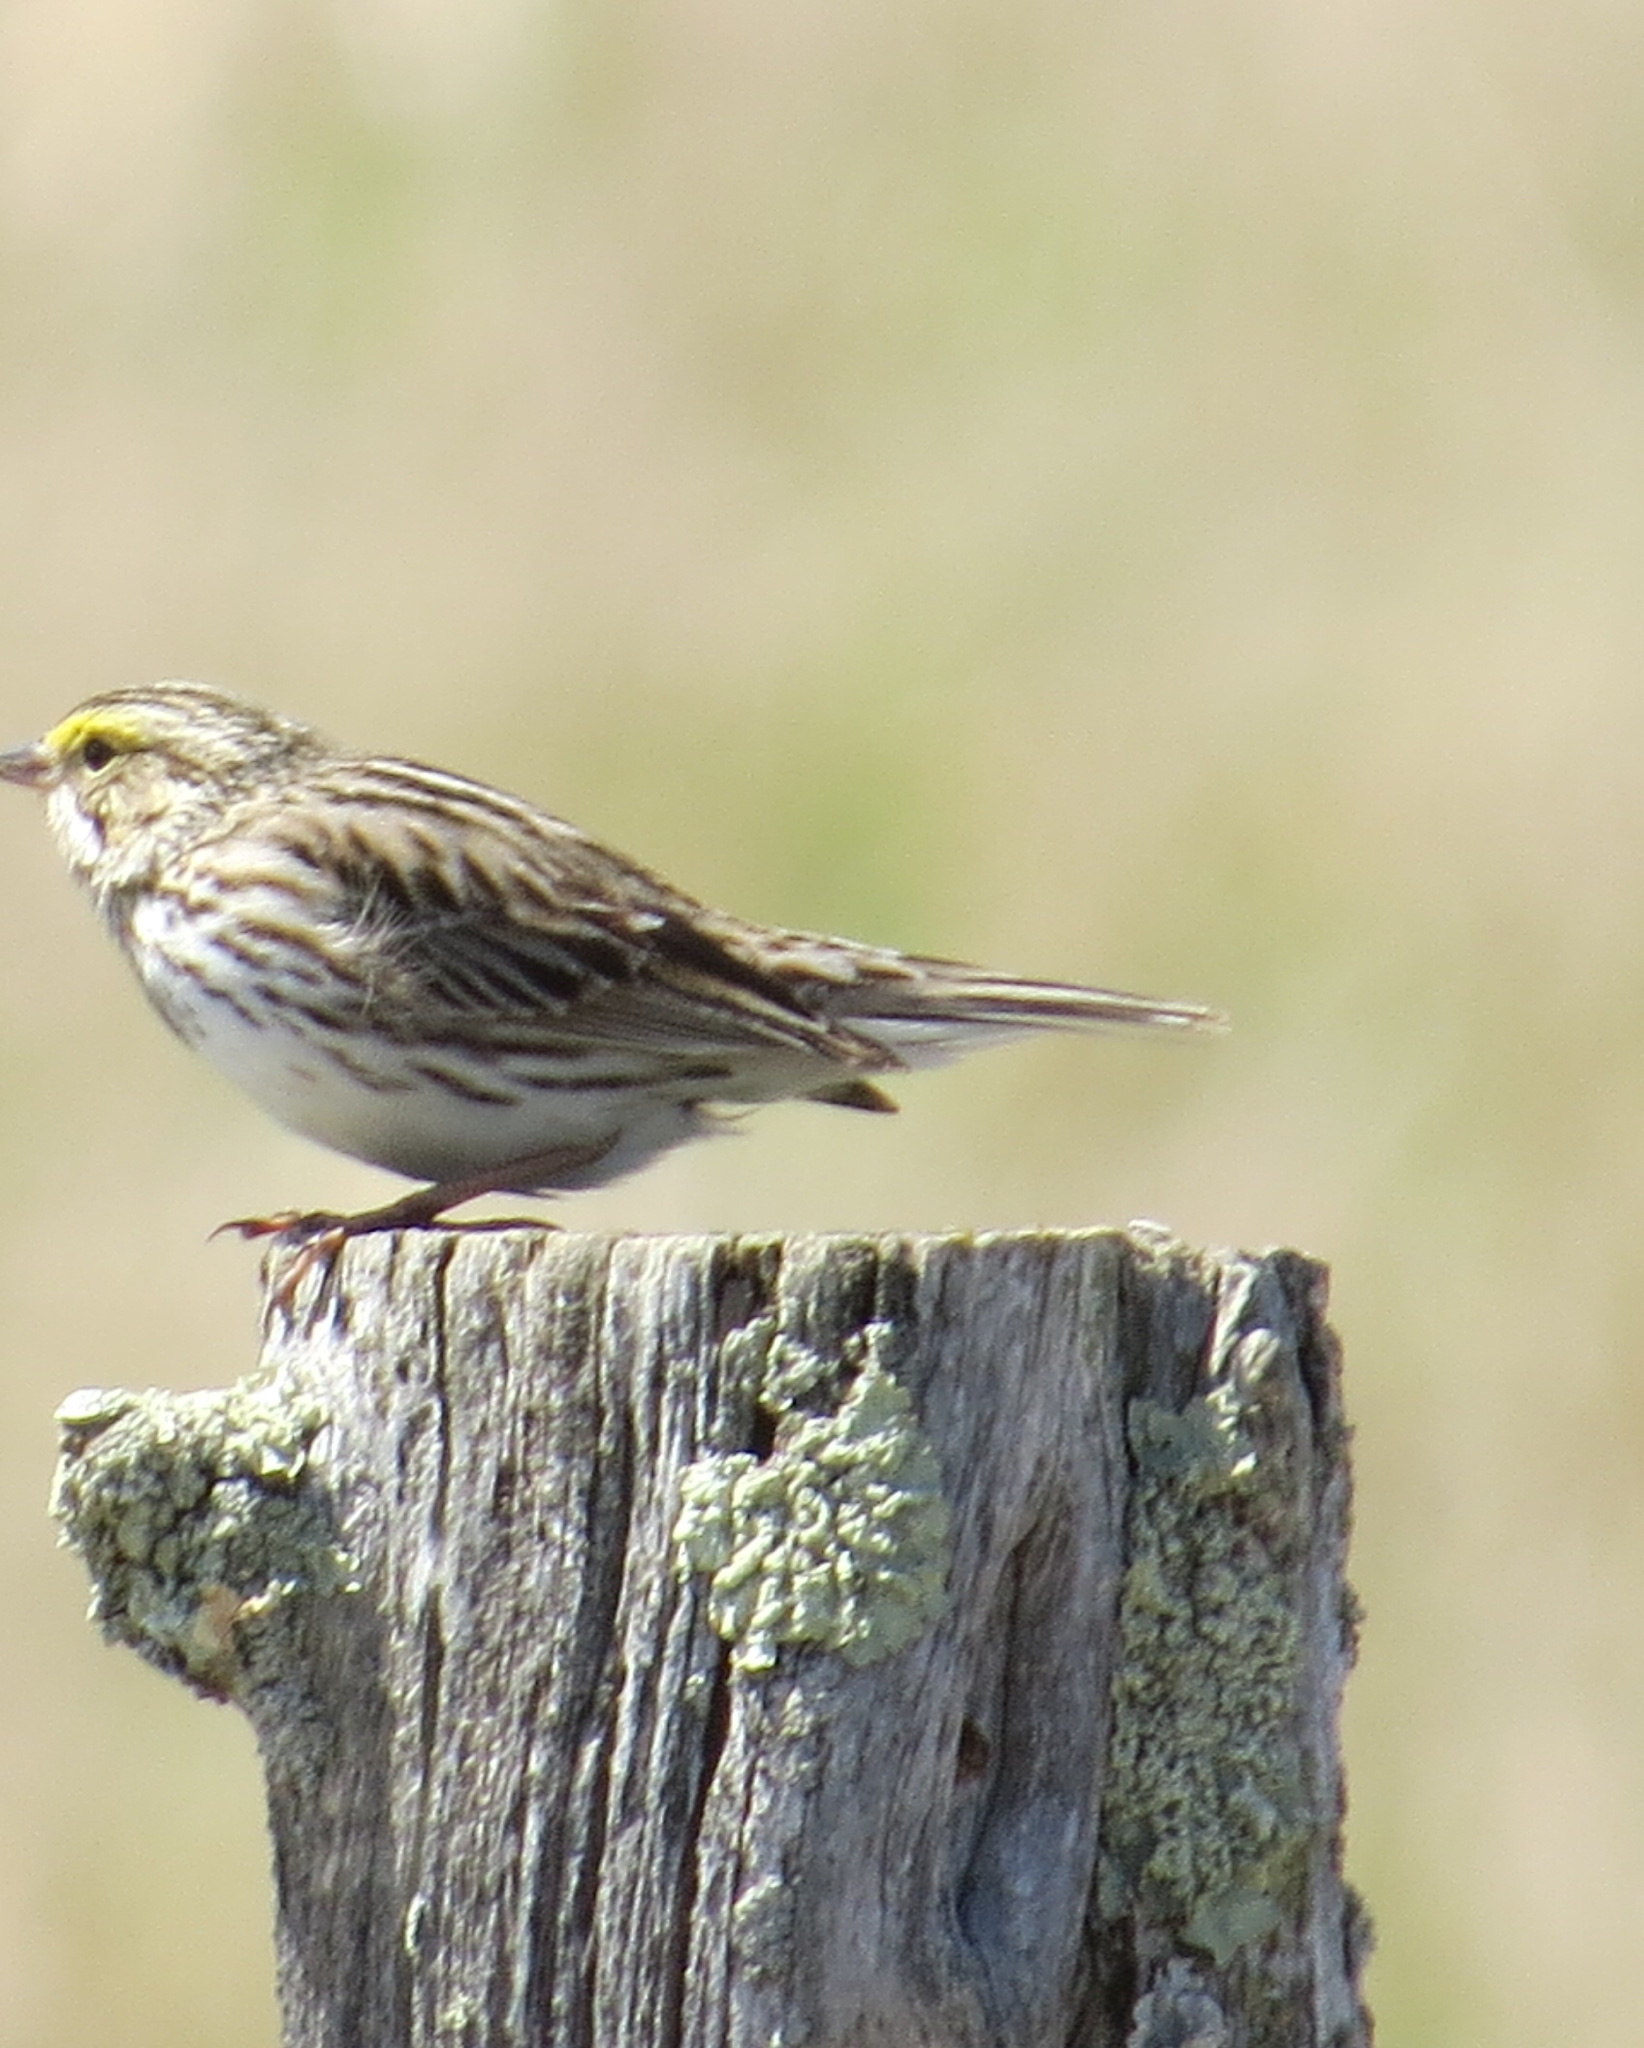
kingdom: Animalia
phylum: Chordata
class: Aves
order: Passeriformes
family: Passerellidae
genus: Passerculus
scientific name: Passerculus sandwichensis
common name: Savannah sparrow
